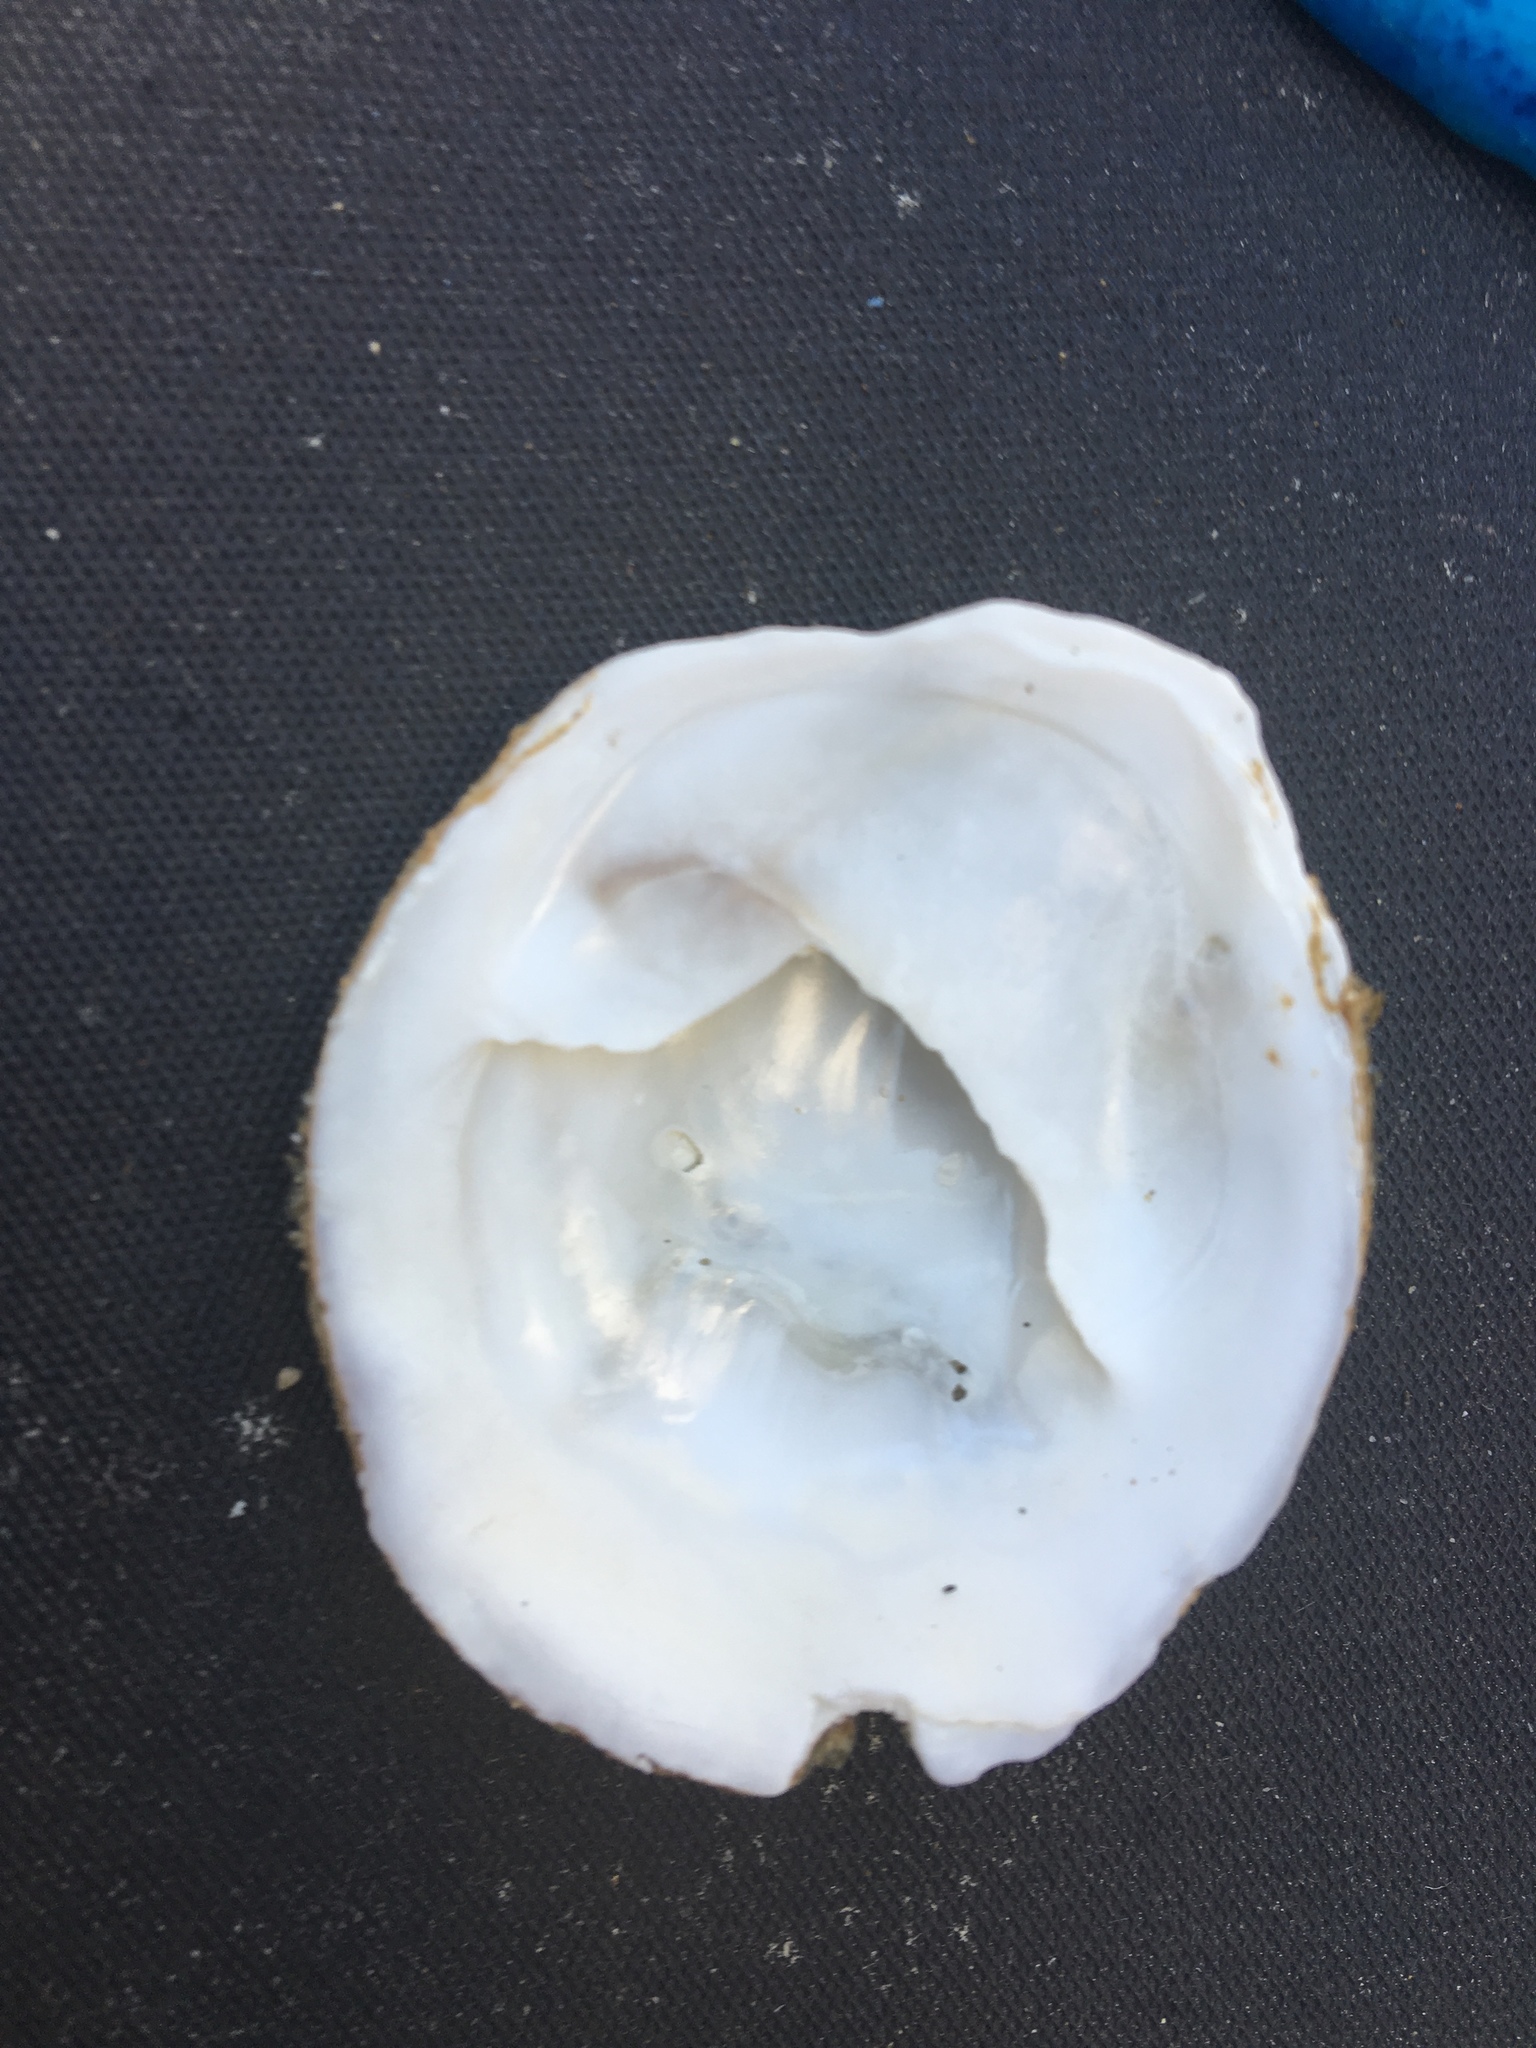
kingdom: Animalia
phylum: Mollusca
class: Gastropoda
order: Littorinimorpha
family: Calyptraeidae
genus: Crepidula
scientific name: Crepidula nummaria
